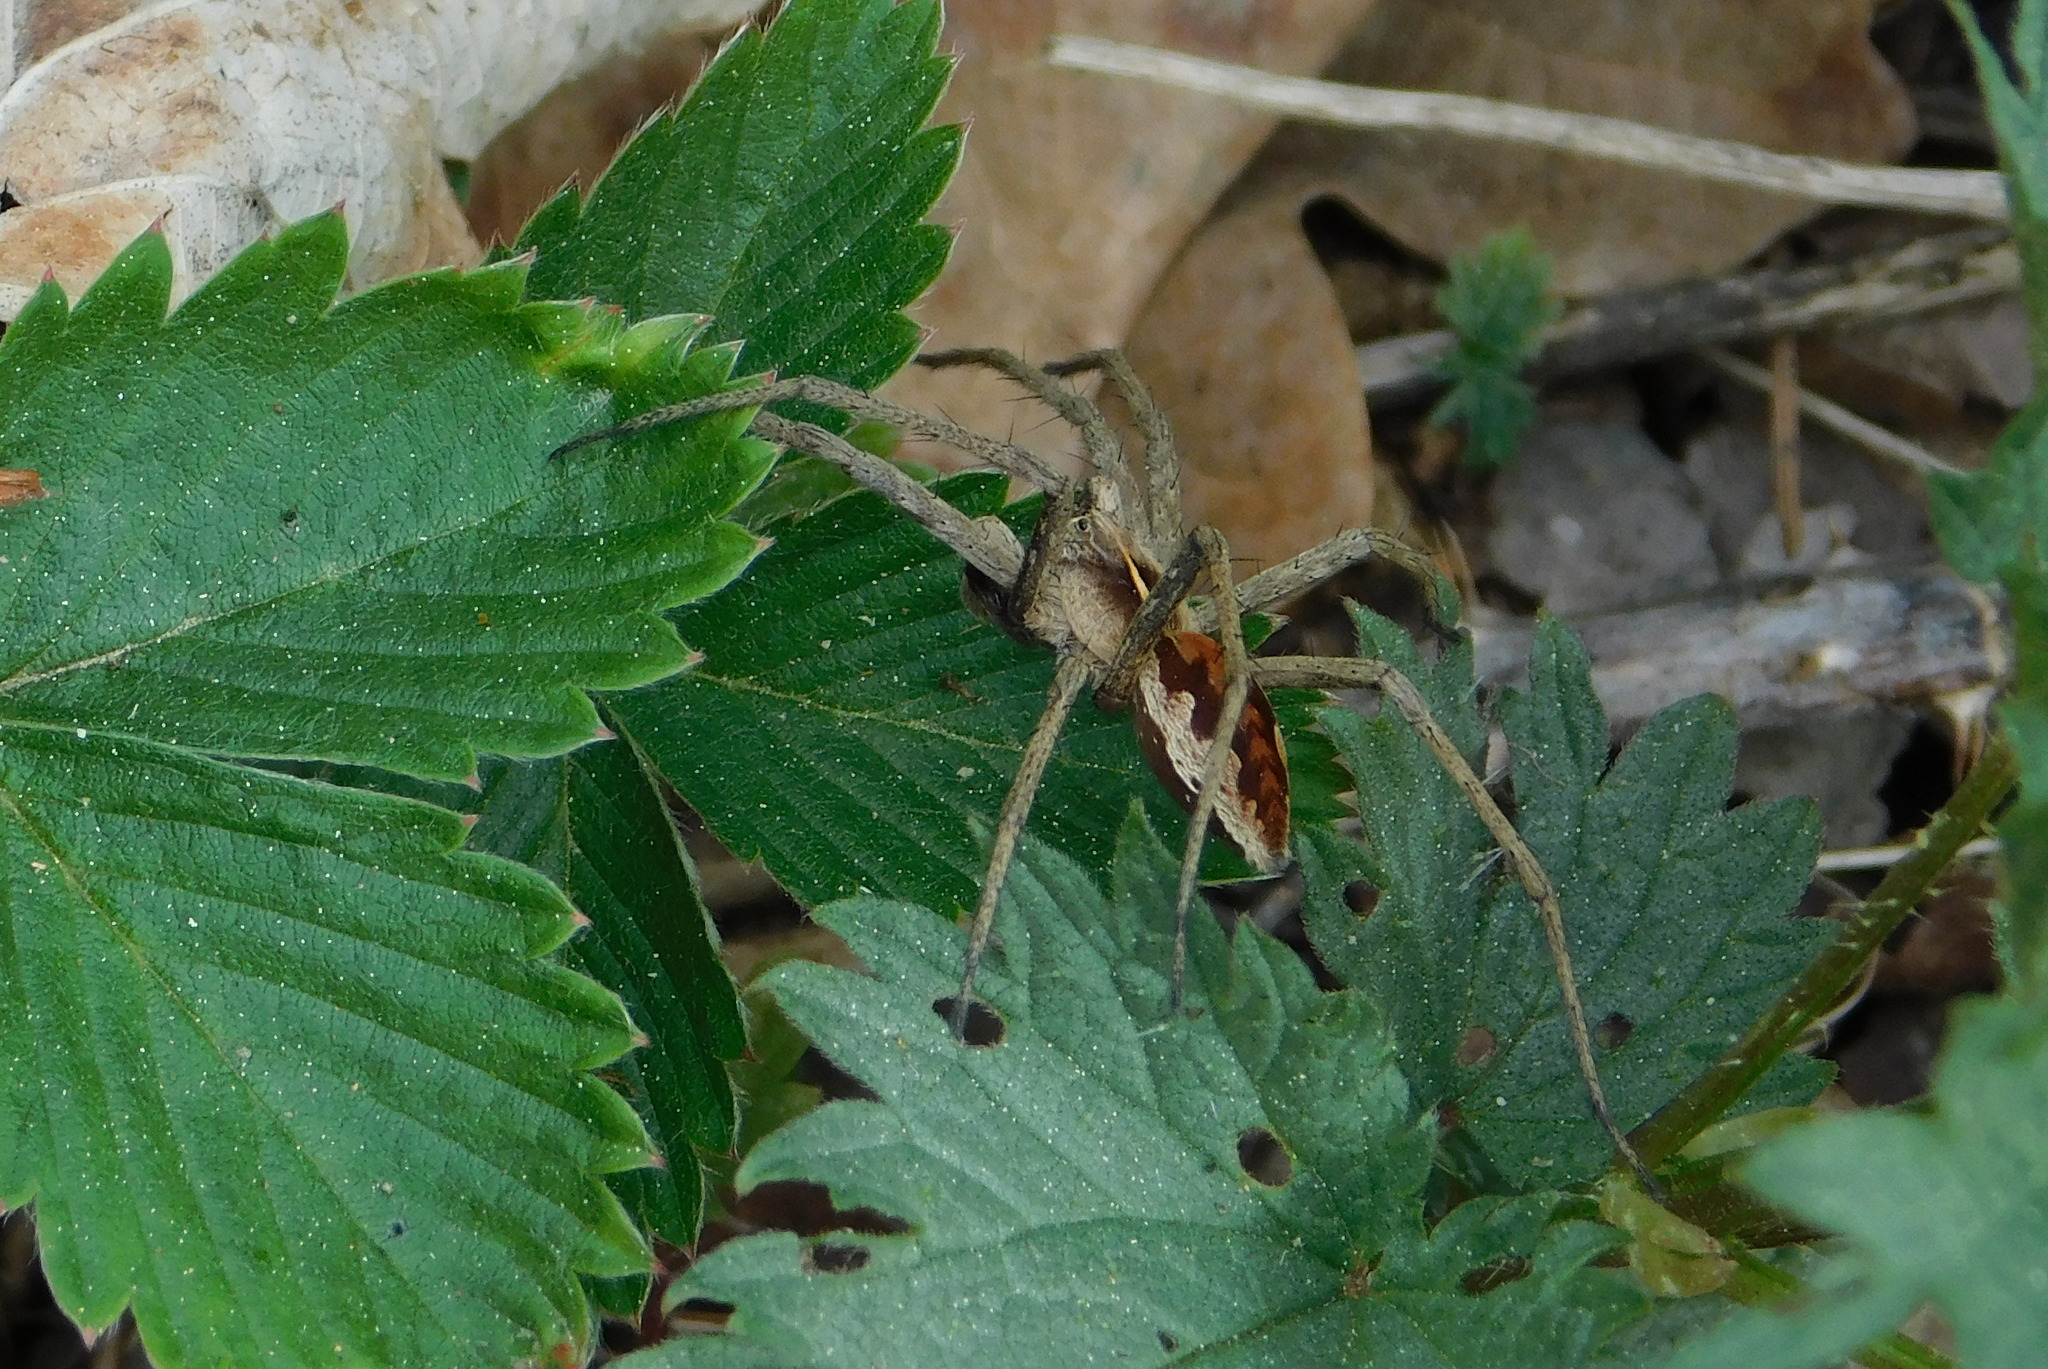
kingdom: Animalia
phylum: Arthropoda
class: Arachnida
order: Araneae
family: Pisauridae
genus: Pisaura
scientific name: Pisaura mirabilis
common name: Tent spider
